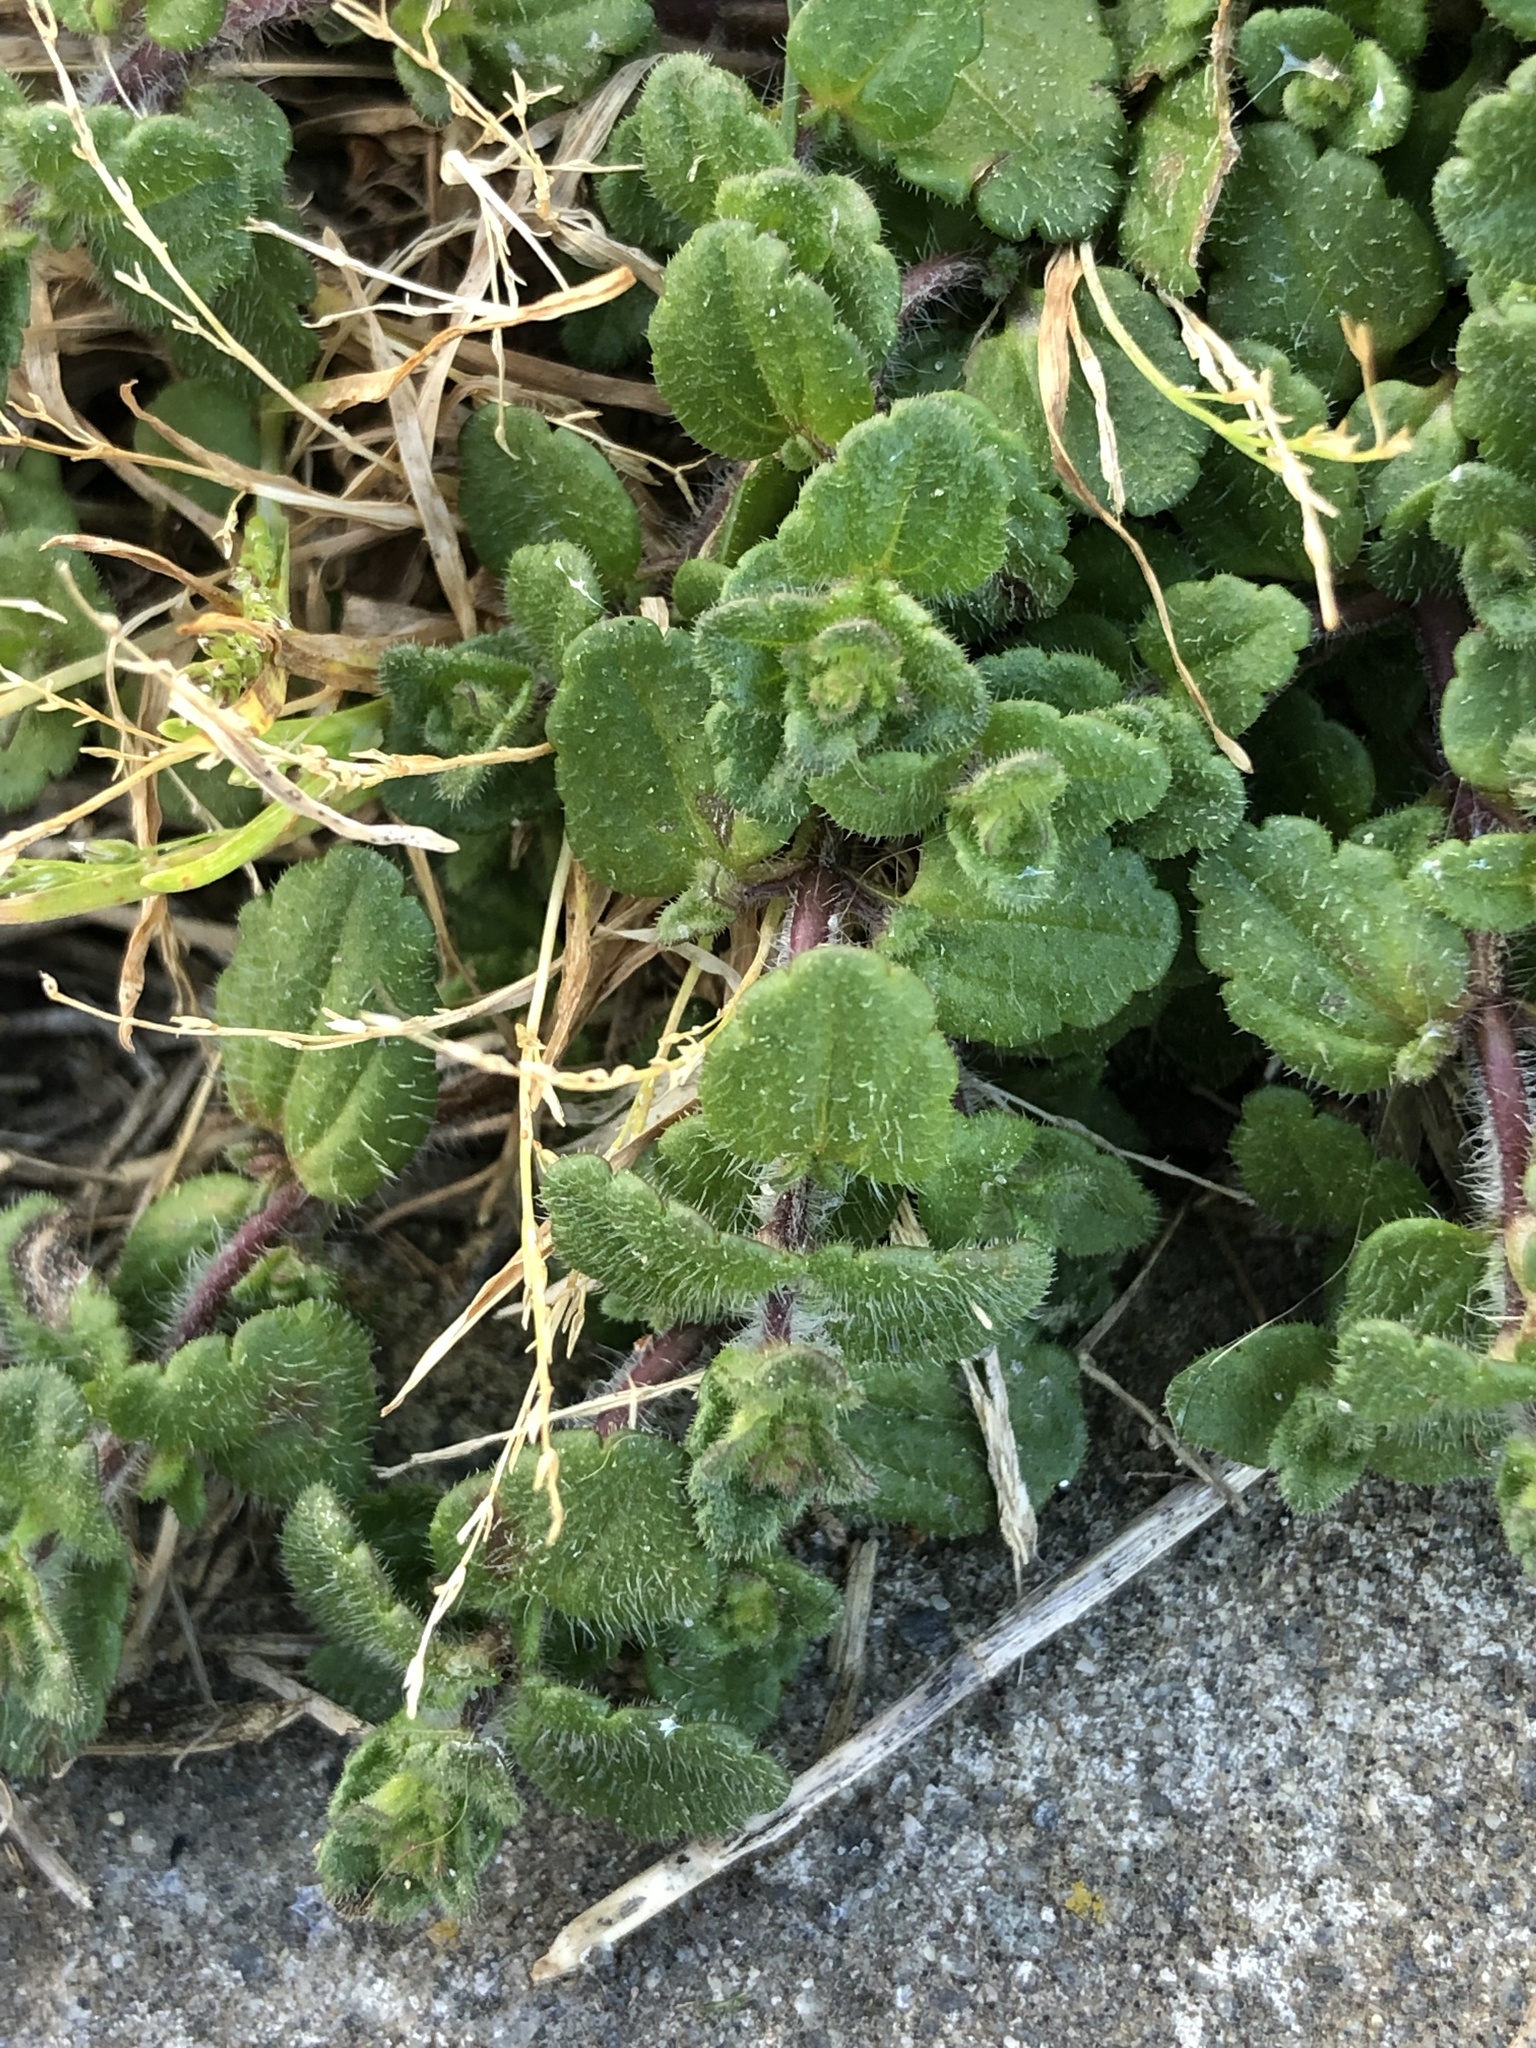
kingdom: Plantae
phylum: Tracheophyta
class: Magnoliopsida
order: Lamiales
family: Plantaginaceae
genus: Veronica
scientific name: Veronica arvensis
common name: Corn speedwell
